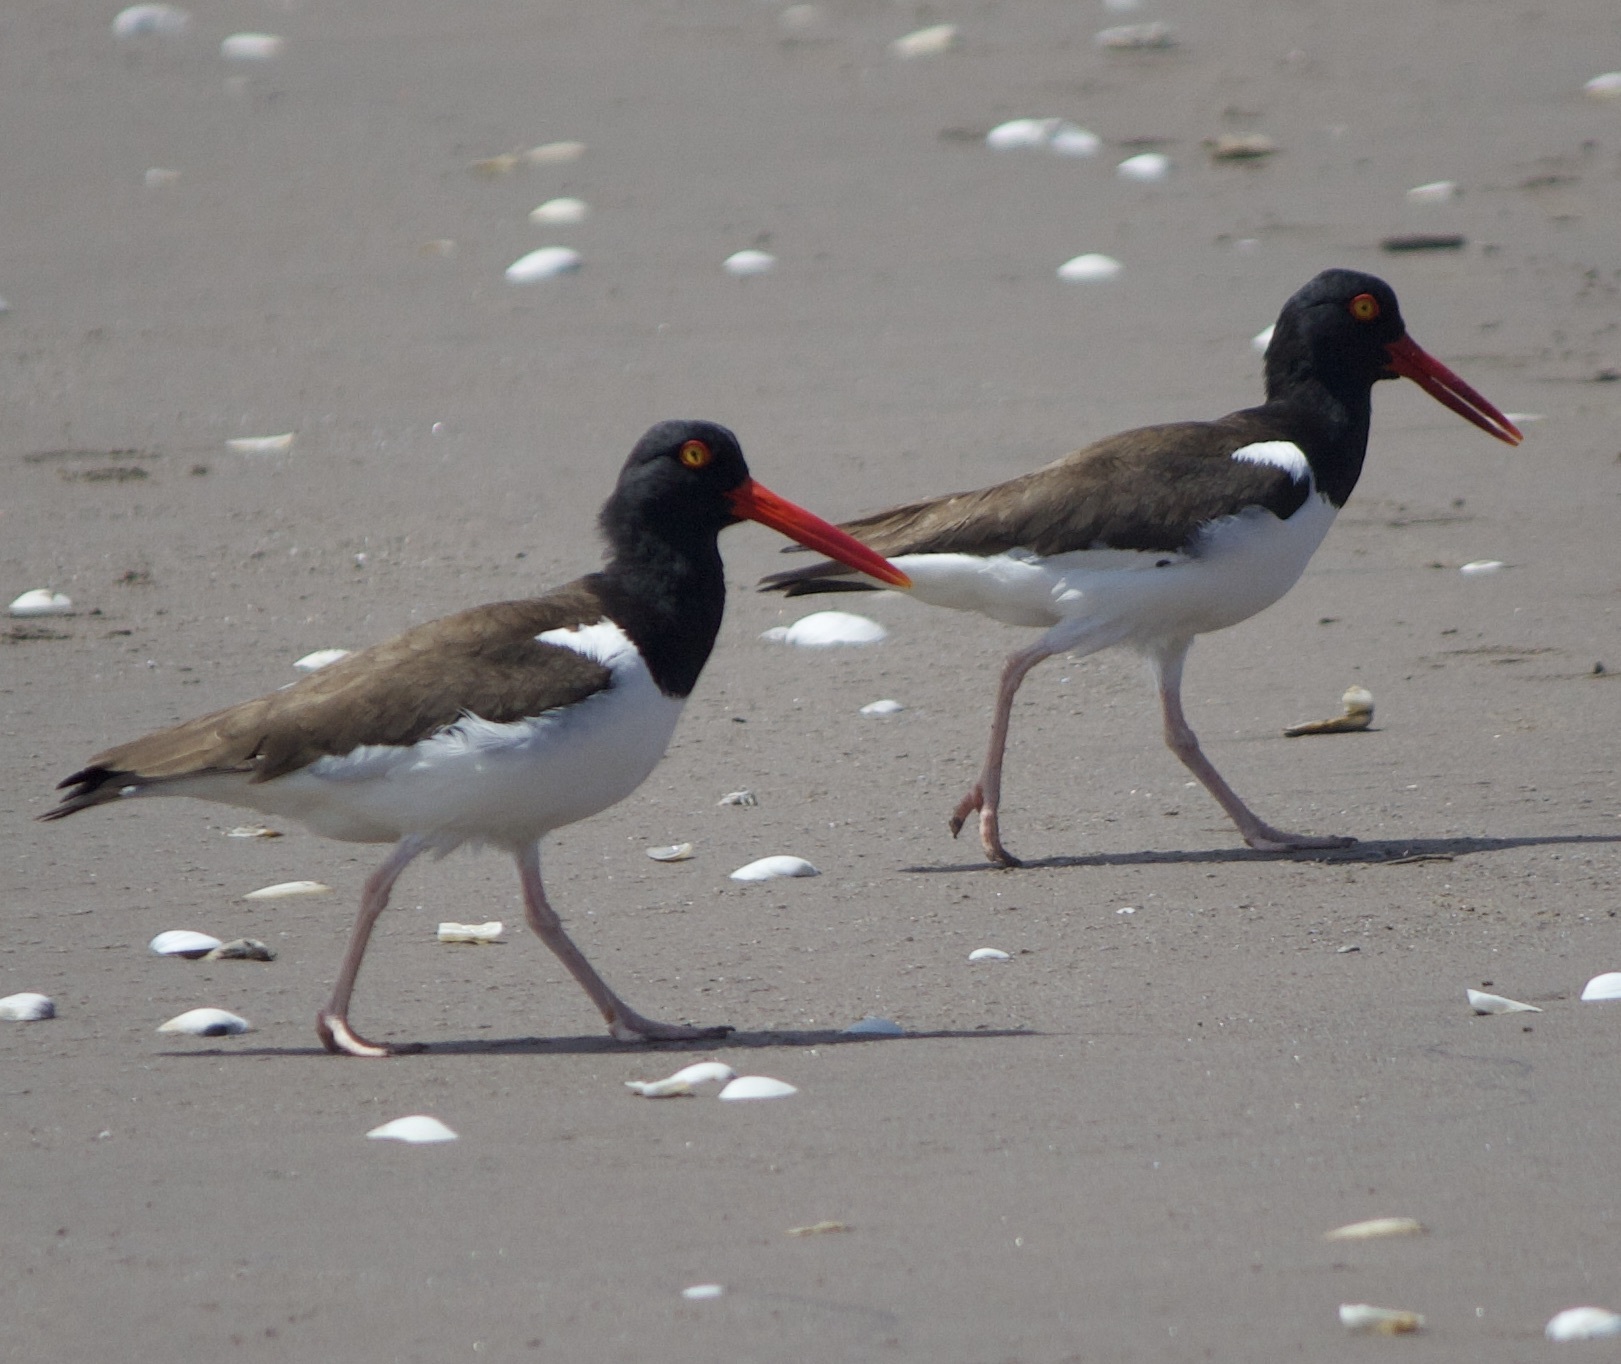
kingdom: Animalia
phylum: Chordata
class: Aves
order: Charadriiformes
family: Haematopodidae
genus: Haematopus
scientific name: Haematopus palliatus
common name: American oystercatcher
